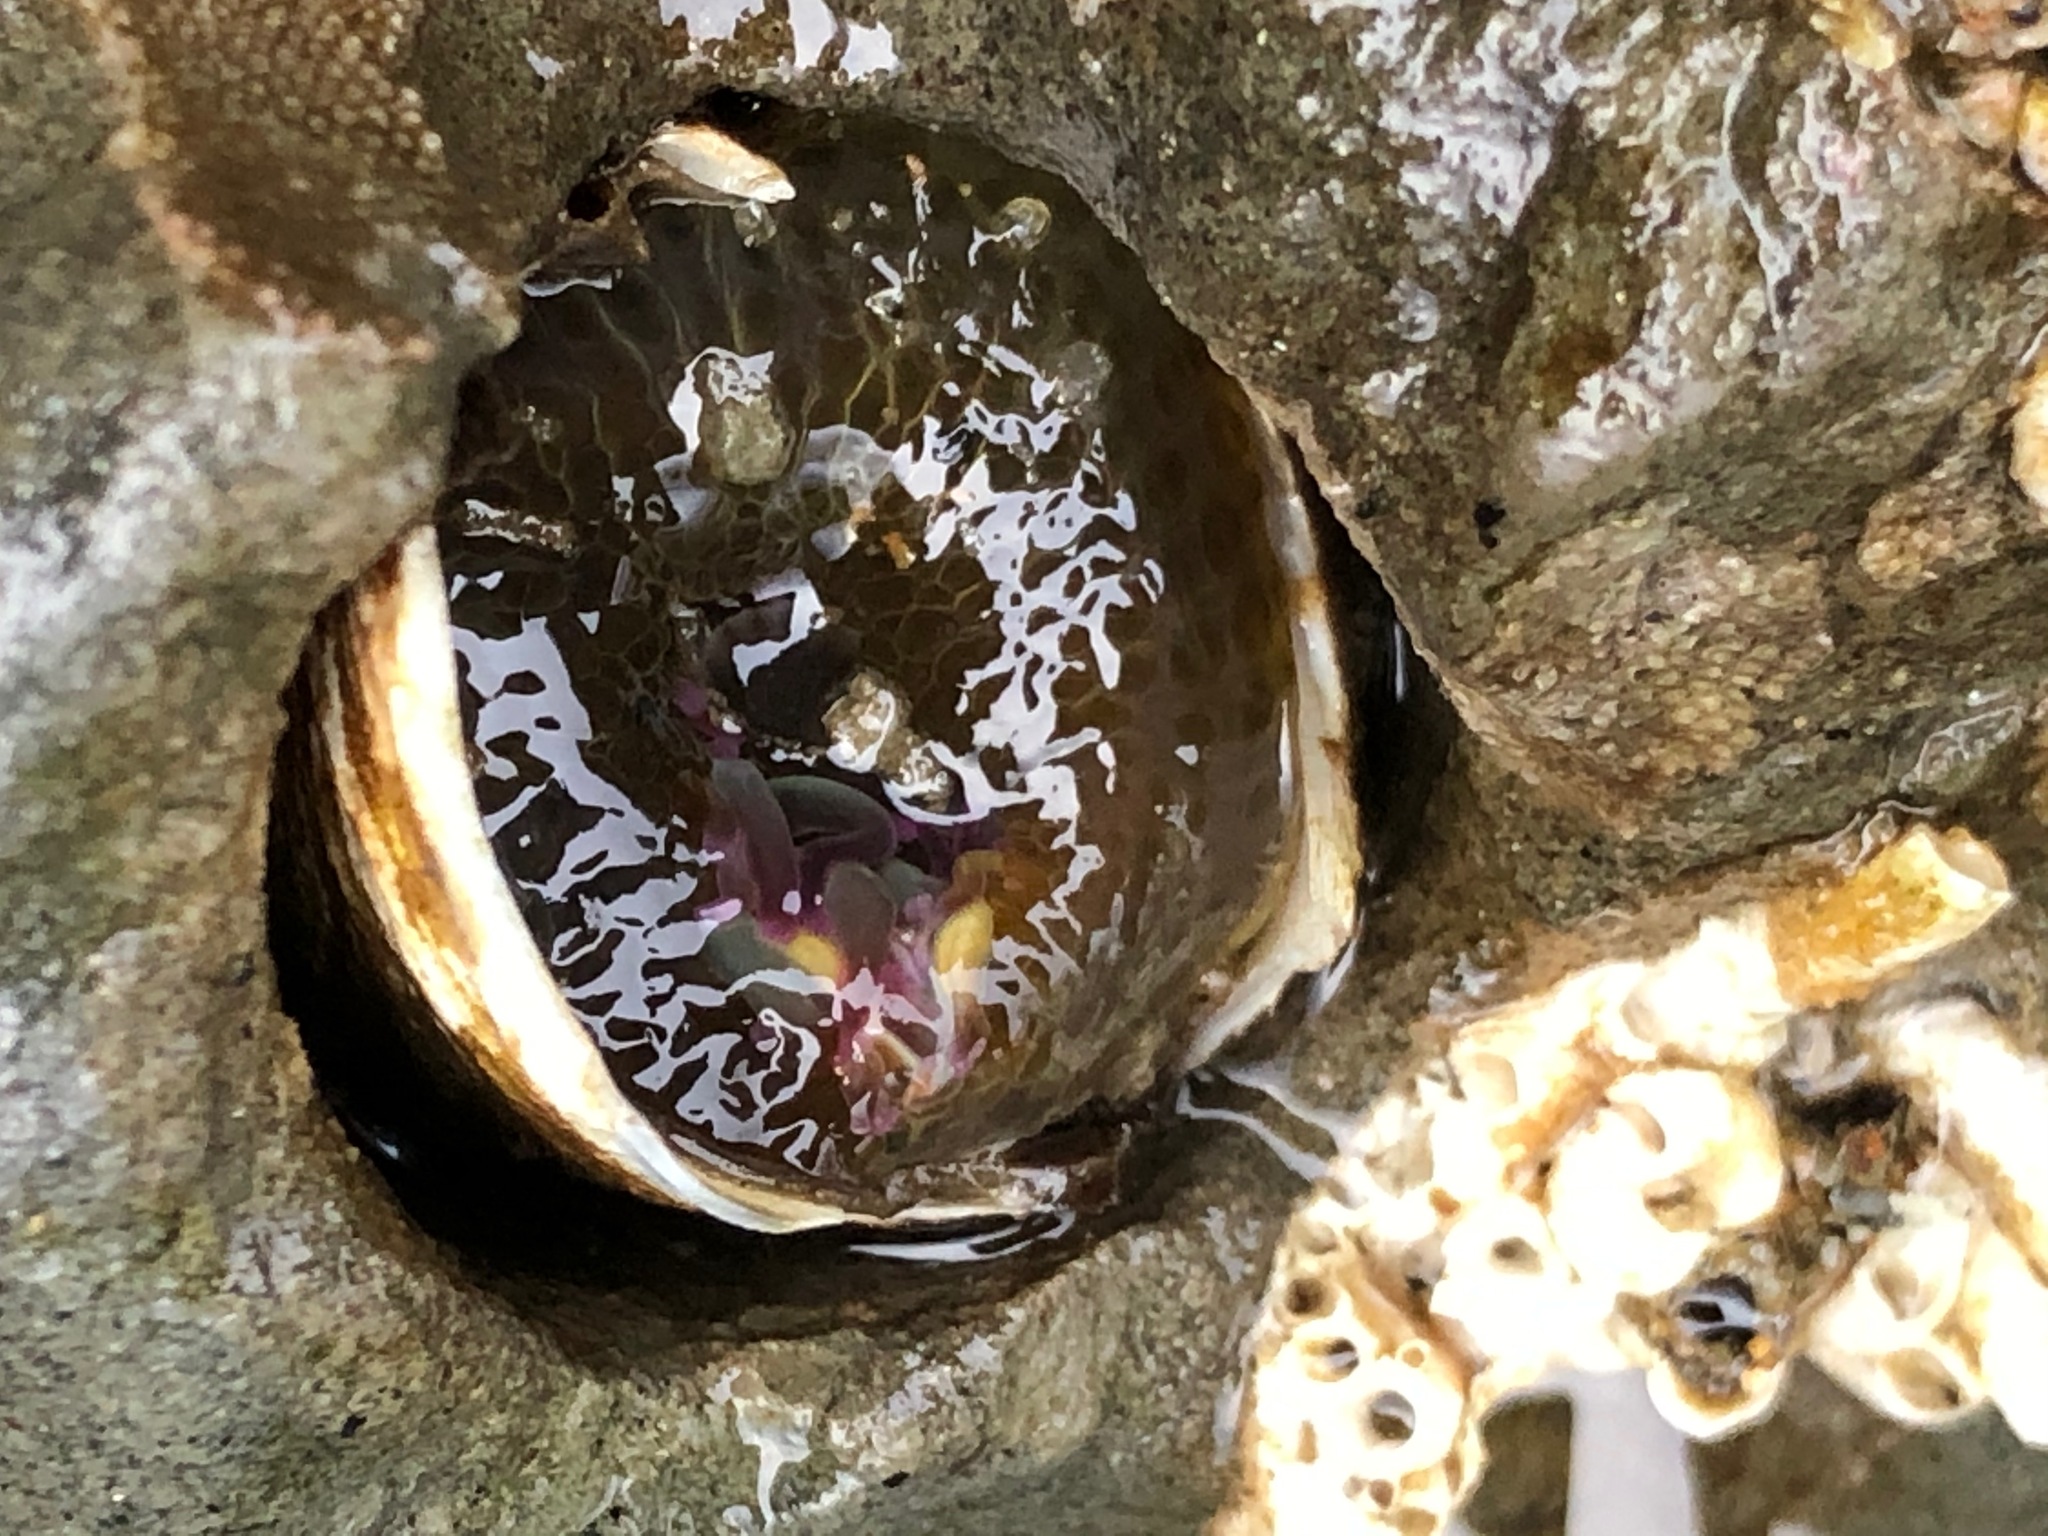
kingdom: Animalia
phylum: Cnidaria
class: Anthozoa
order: Actiniaria
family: Actiniidae
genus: Anthopleura
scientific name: Anthopleura elegantissima
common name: Clonal anemone
